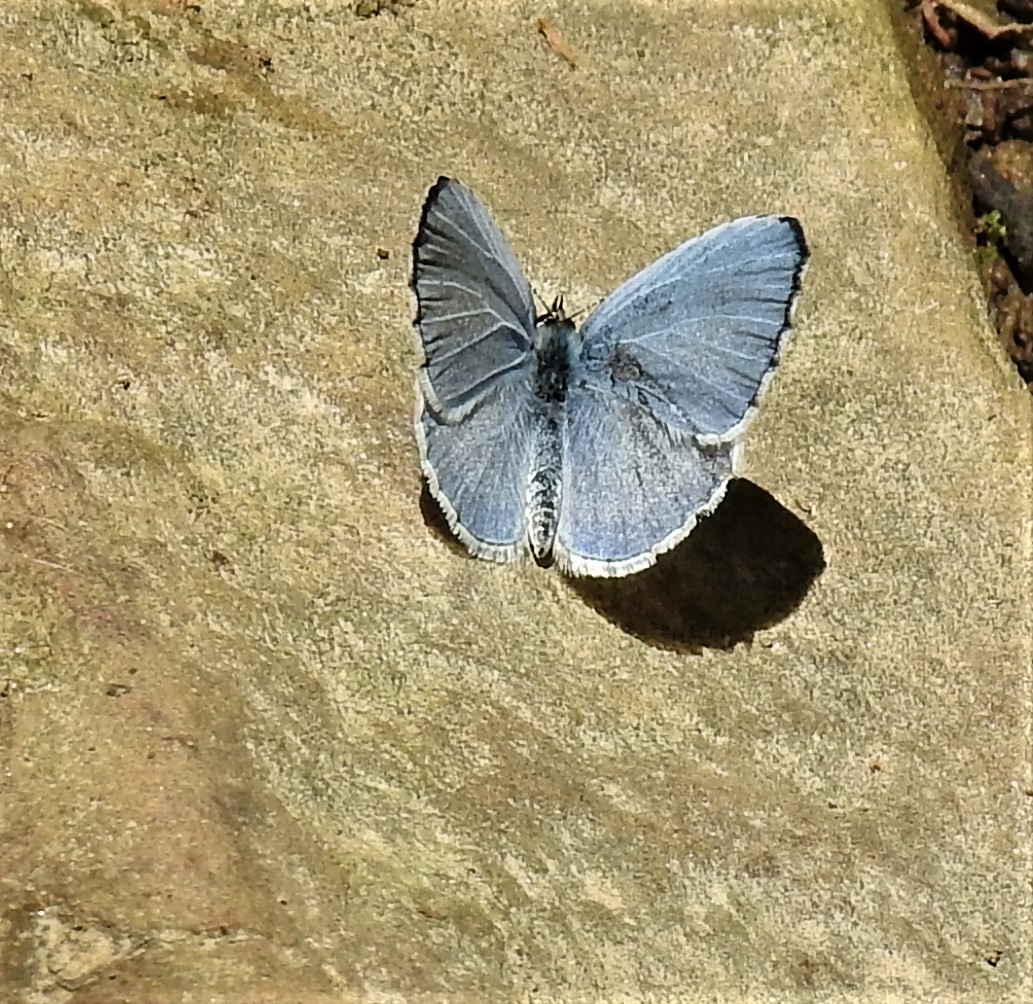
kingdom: Animalia
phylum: Arthropoda
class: Insecta
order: Lepidoptera
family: Lycaenidae
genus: Celastrina
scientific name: Celastrina ladon
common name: Spring azure
